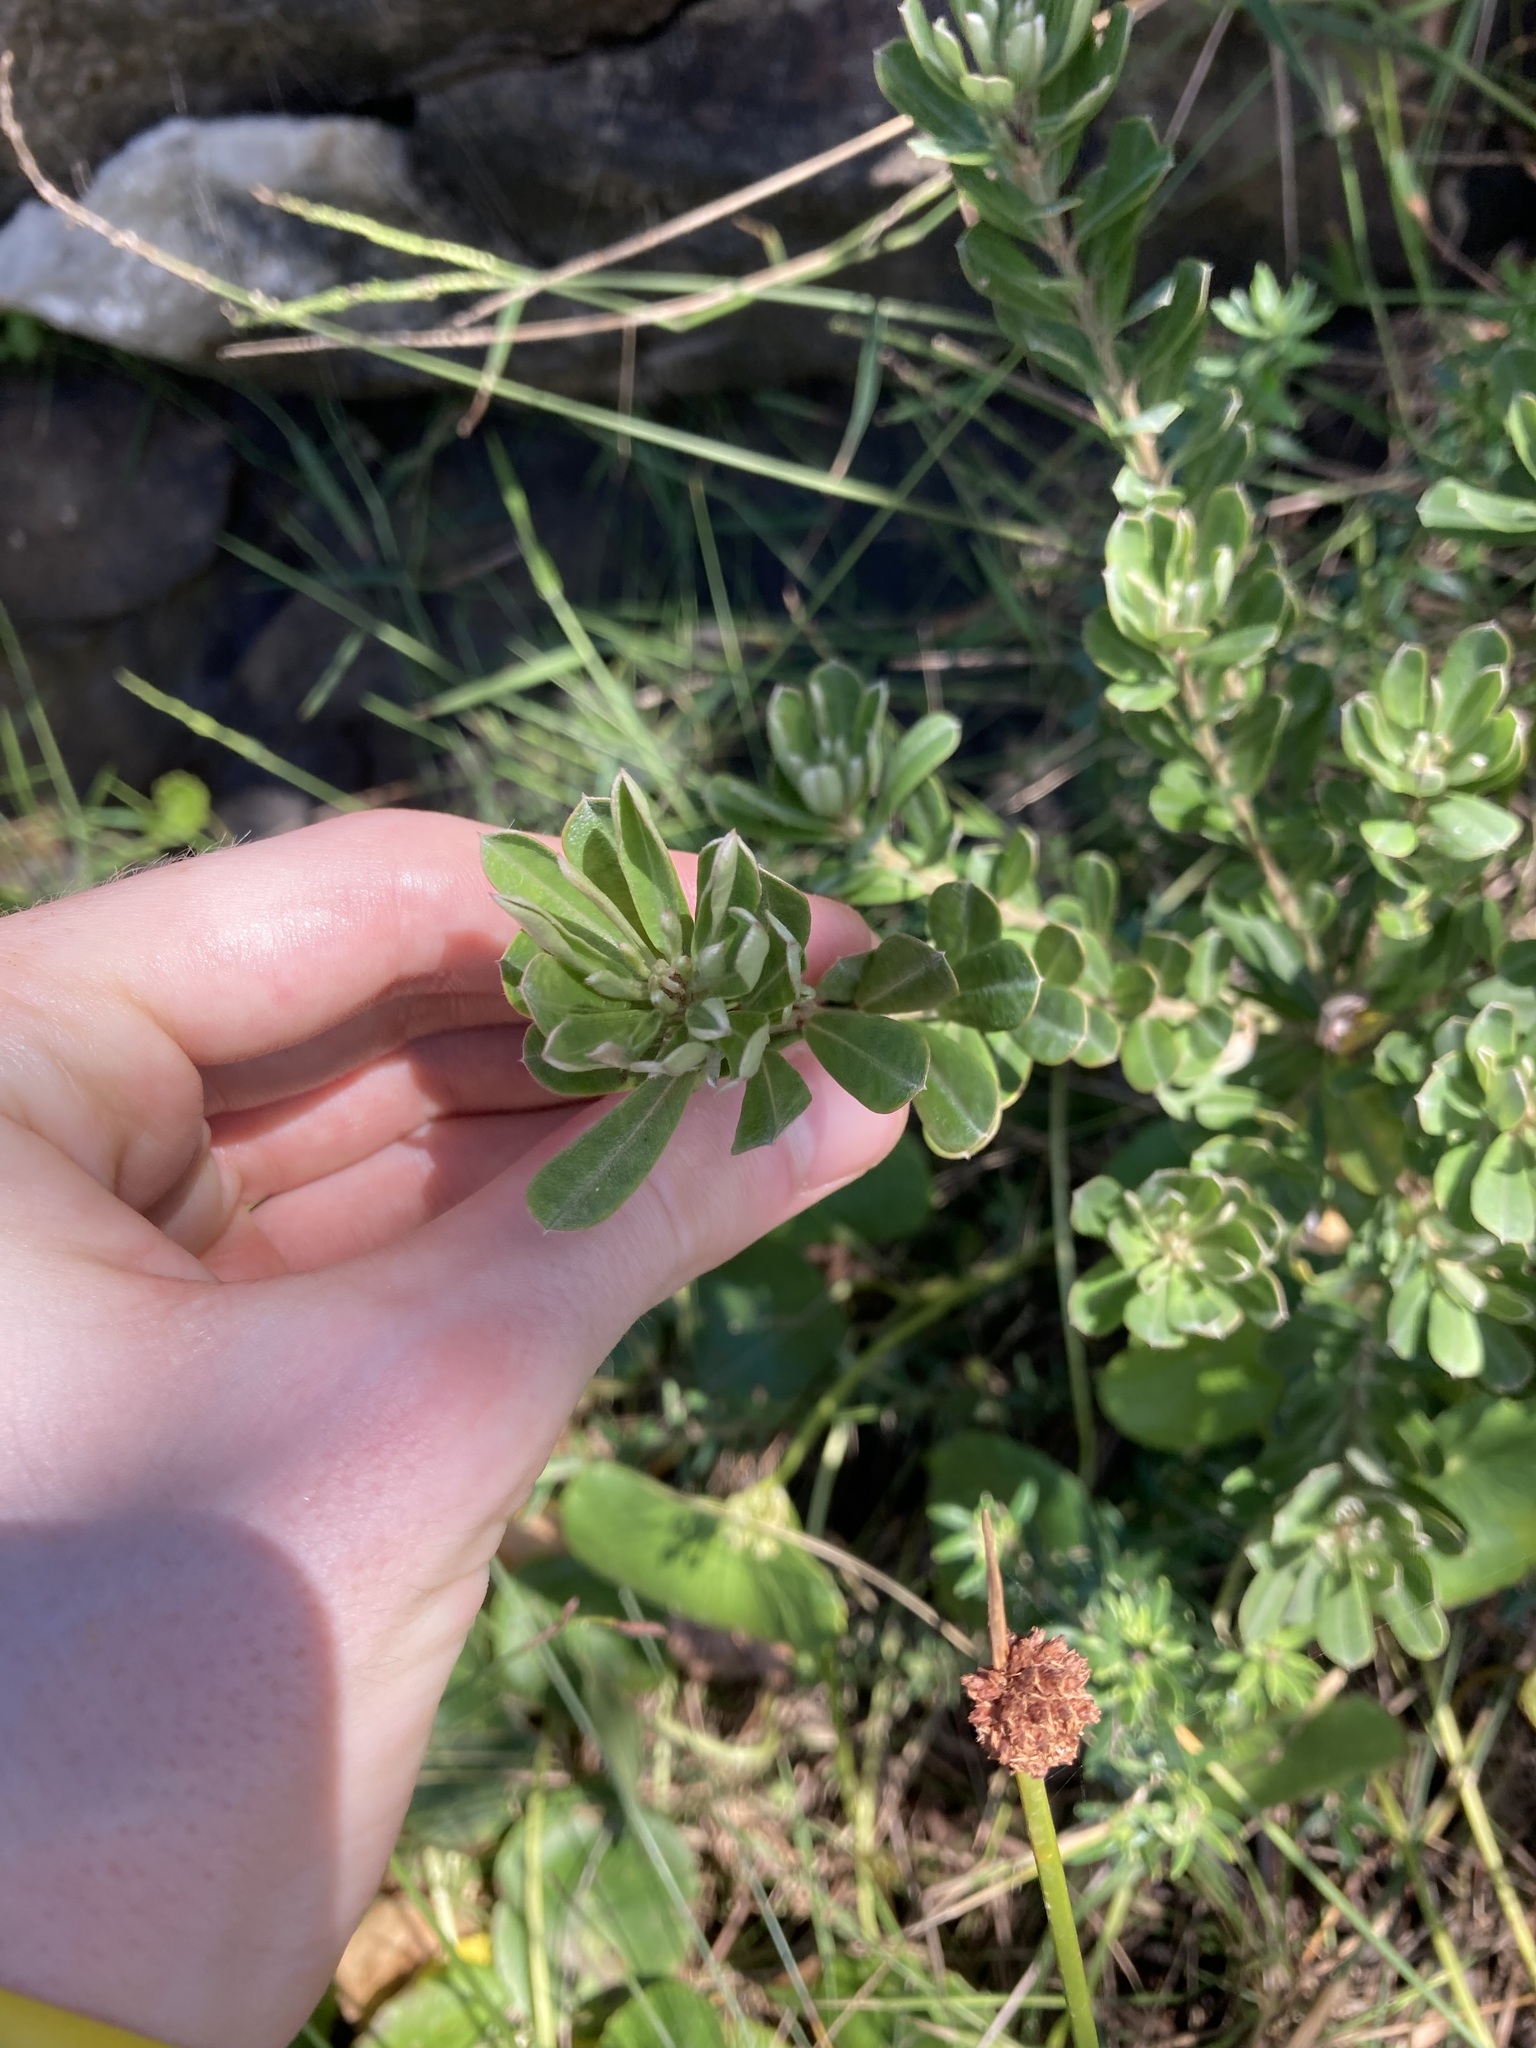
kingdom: Plantae
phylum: Tracheophyta
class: Magnoliopsida
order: Fabales
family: Fabaceae
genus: Pultenaea
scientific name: Pultenaea daphnoides
